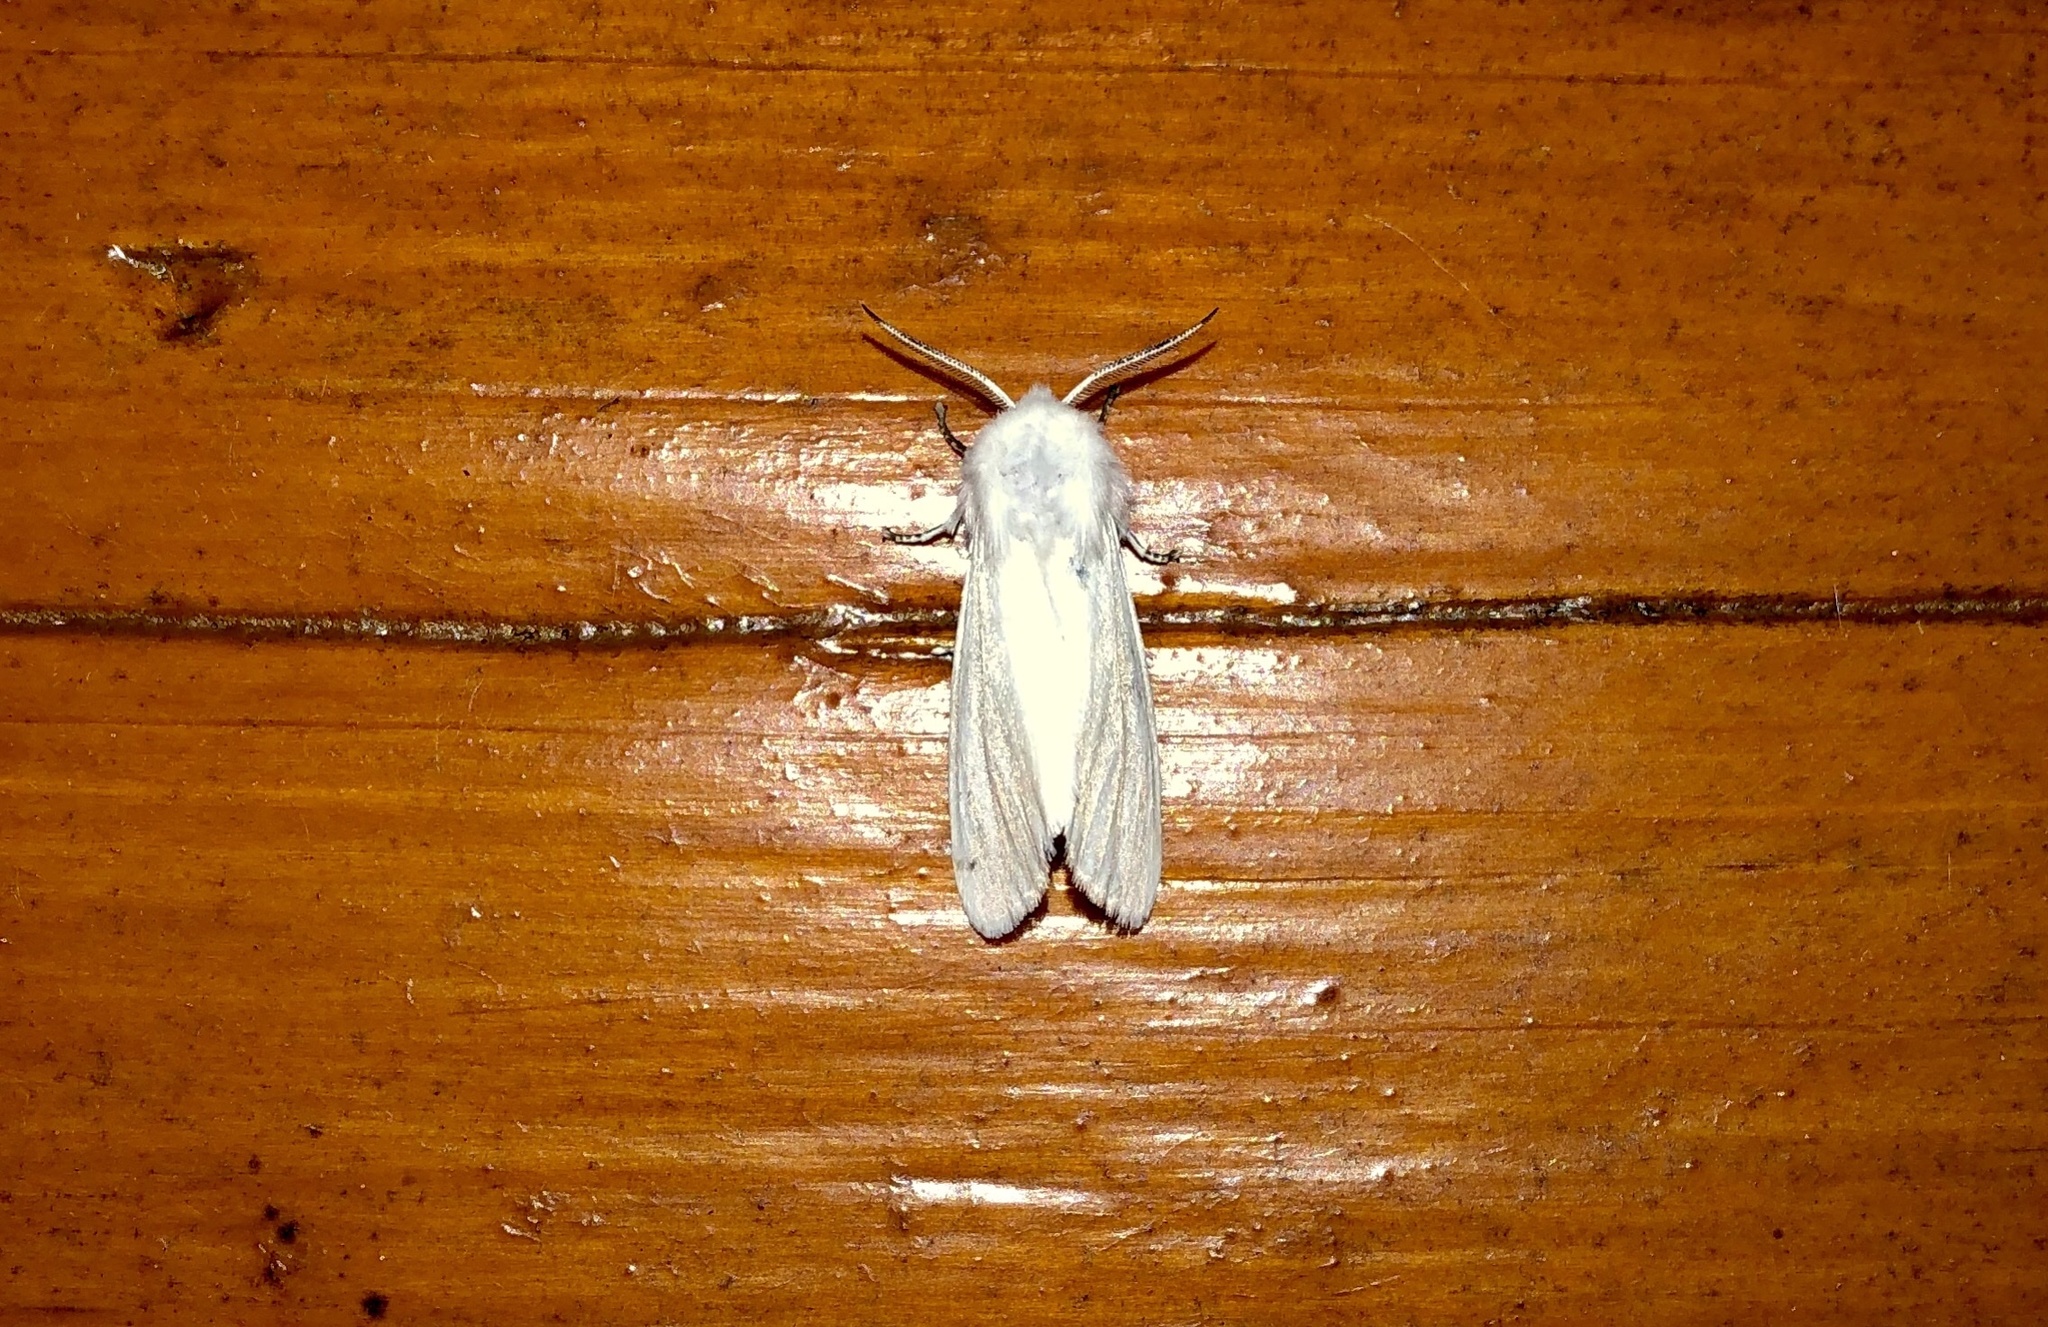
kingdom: Animalia
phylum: Arthropoda
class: Insecta
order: Lepidoptera
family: Erebidae
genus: Hyphantria
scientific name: Hyphantria cunea
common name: American white moth
